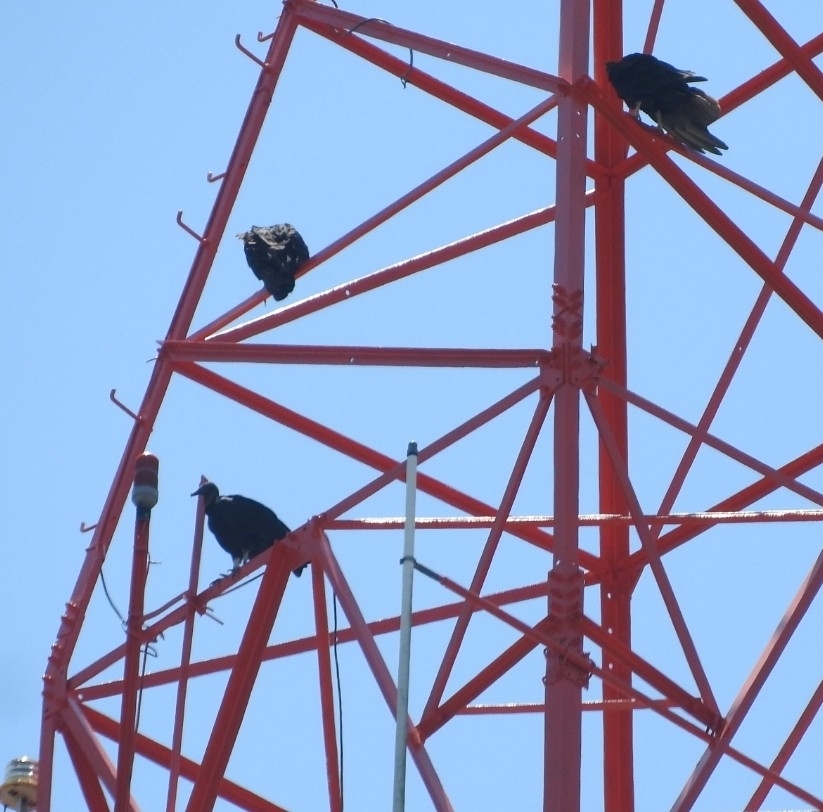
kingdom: Animalia
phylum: Chordata
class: Aves
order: Accipitriformes
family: Cathartidae
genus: Coragyps
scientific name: Coragyps atratus
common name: Black vulture
